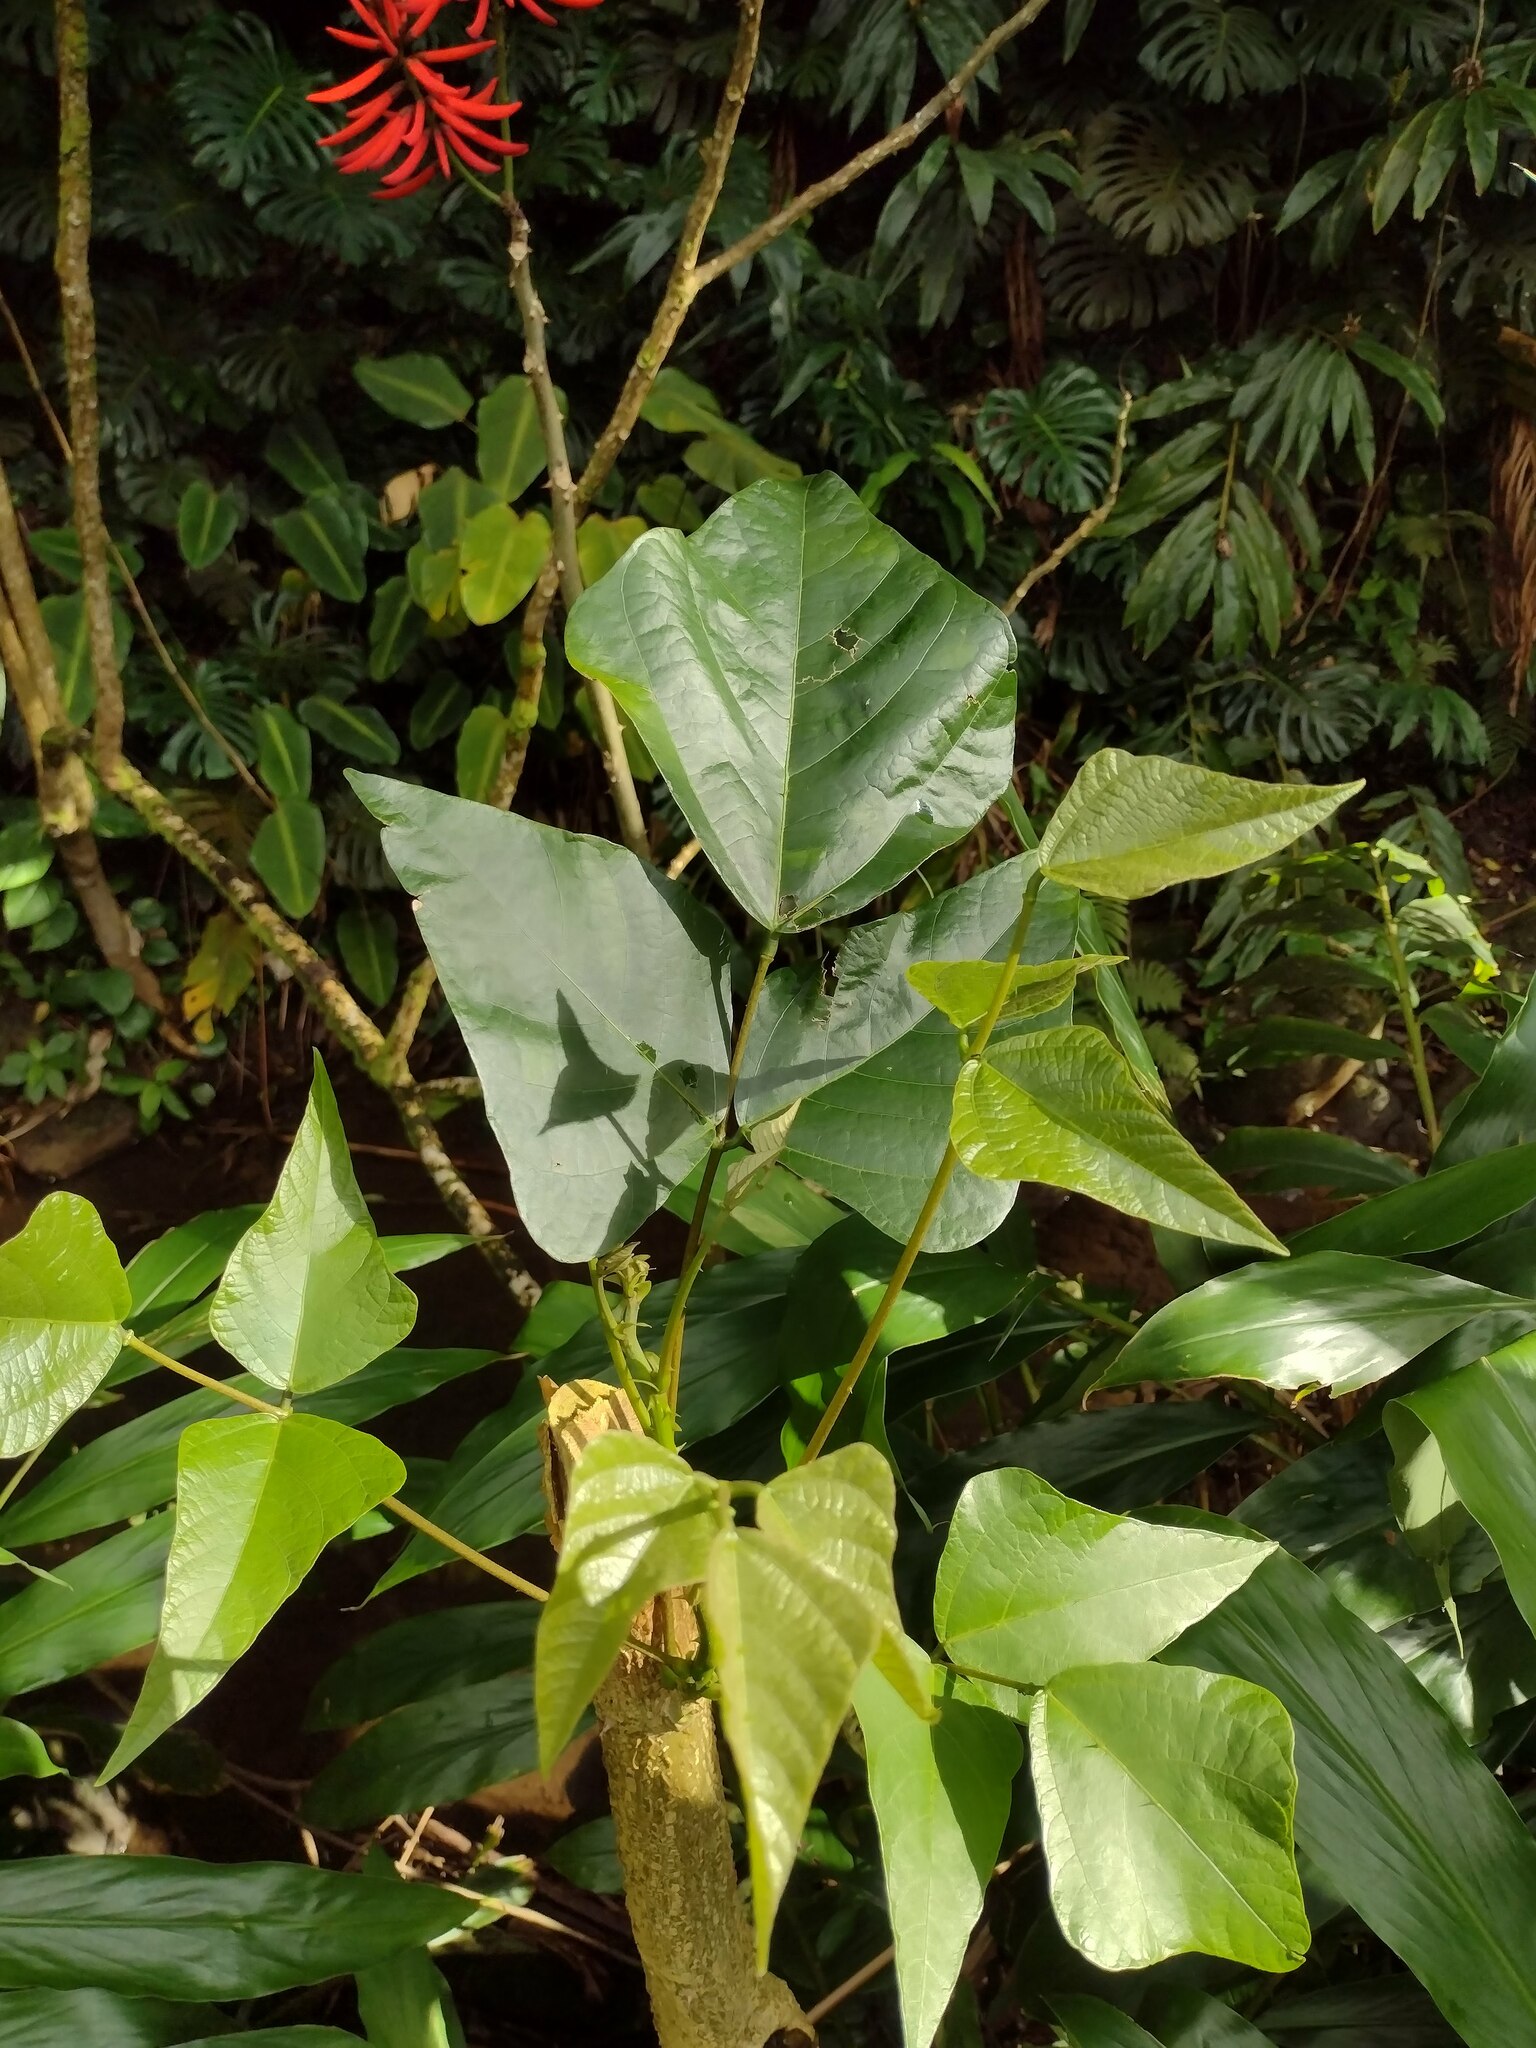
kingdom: Plantae
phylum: Tracheophyta
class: Magnoliopsida
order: Fabales
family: Fabaceae
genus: Erythrina
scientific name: Erythrina speciosa
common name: Coral tree
